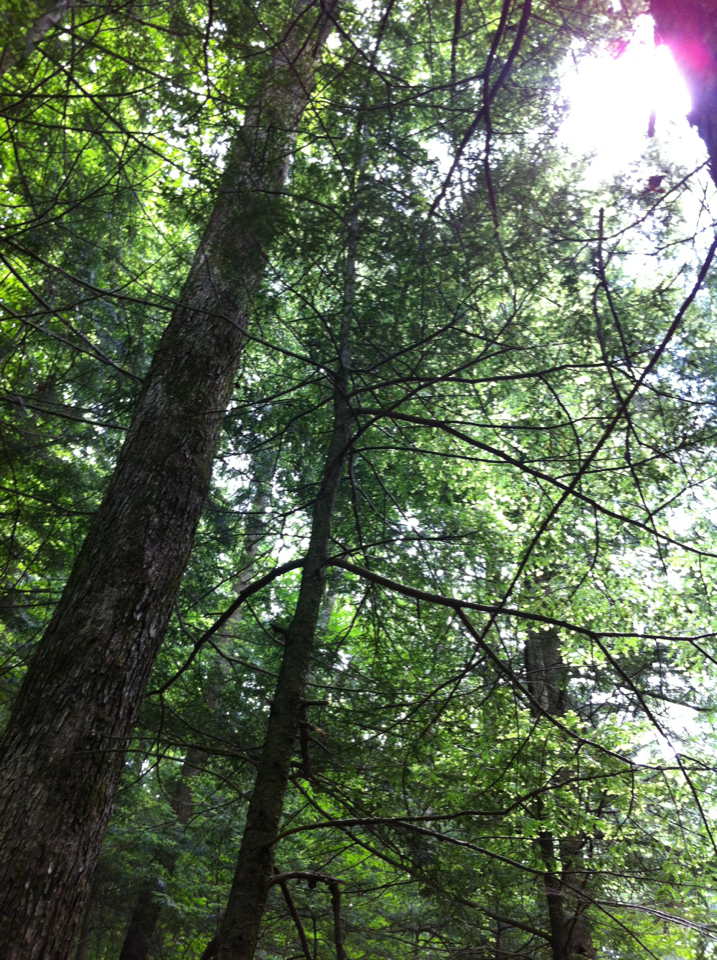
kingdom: Plantae
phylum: Tracheophyta
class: Pinopsida
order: Pinales
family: Pinaceae
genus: Tsuga
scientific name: Tsuga canadensis
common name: Eastern hemlock
